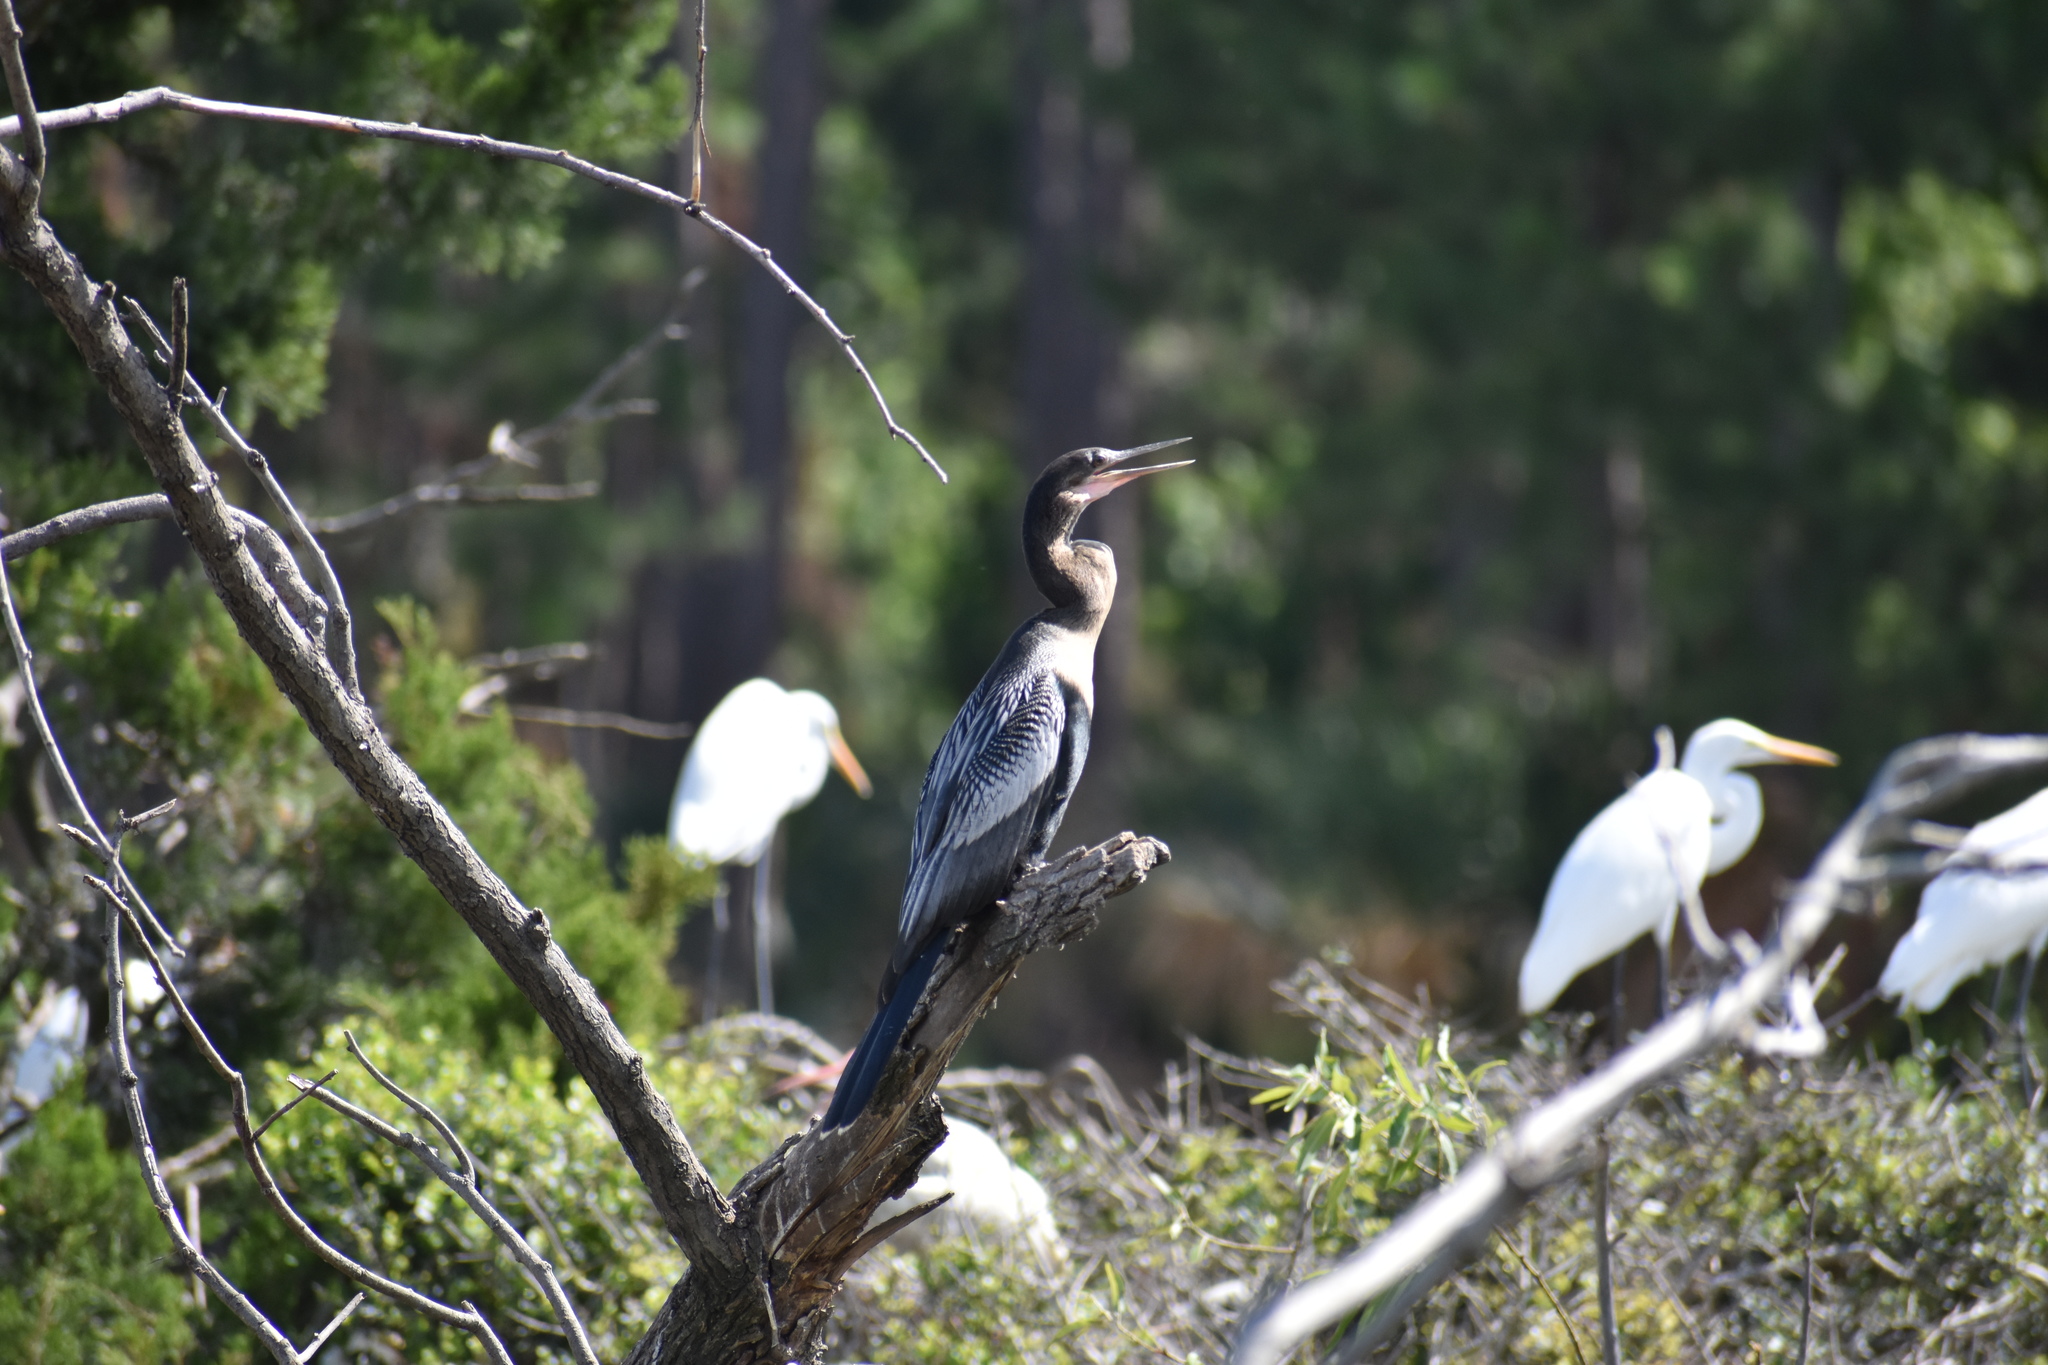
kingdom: Animalia
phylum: Chordata
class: Aves
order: Suliformes
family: Anhingidae
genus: Anhinga
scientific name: Anhinga anhinga
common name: Anhinga
